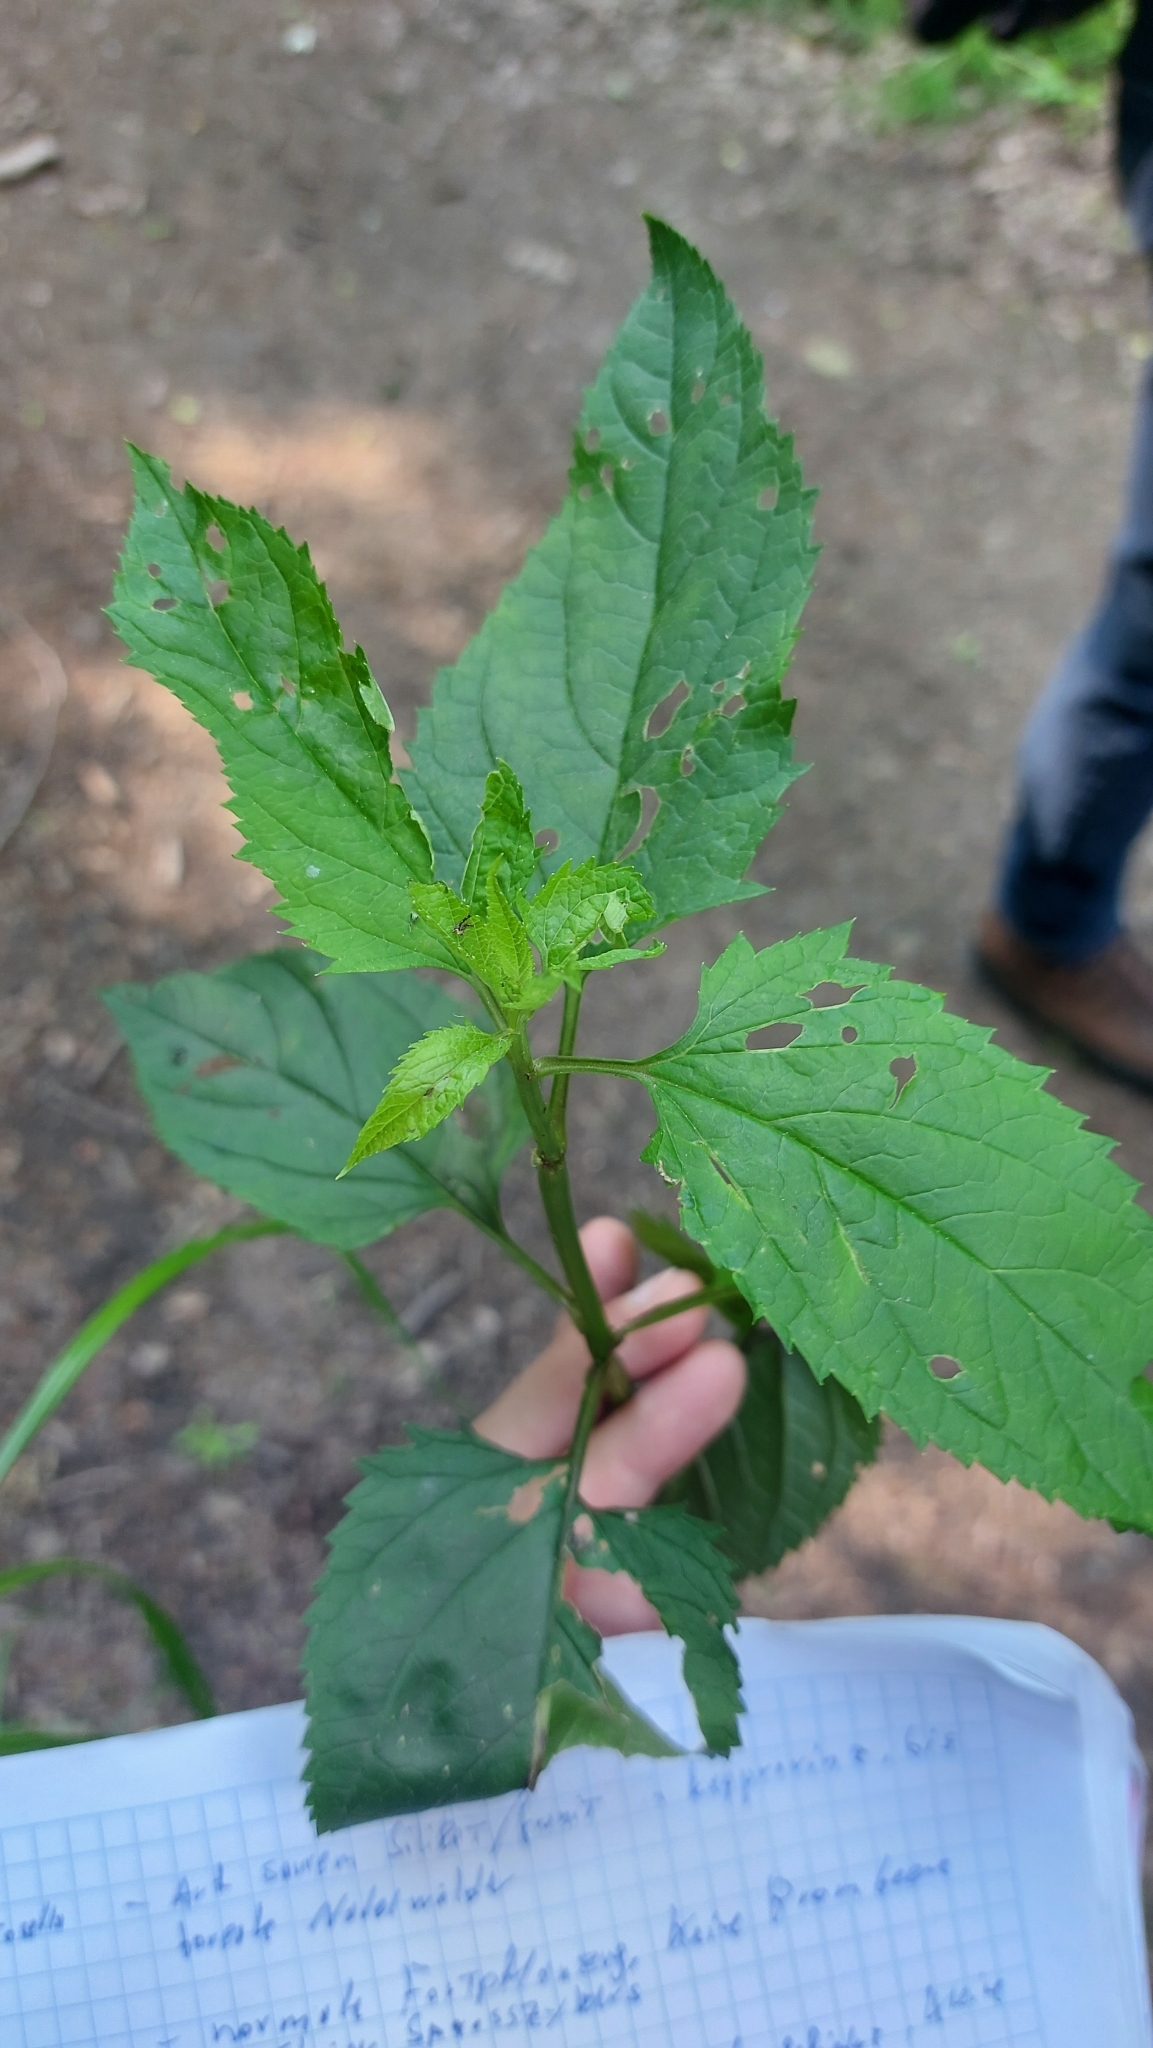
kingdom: Plantae
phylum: Tracheophyta
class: Magnoliopsida
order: Lamiales
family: Scrophulariaceae
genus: Scrophularia
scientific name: Scrophularia nodosa
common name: Common figwort
